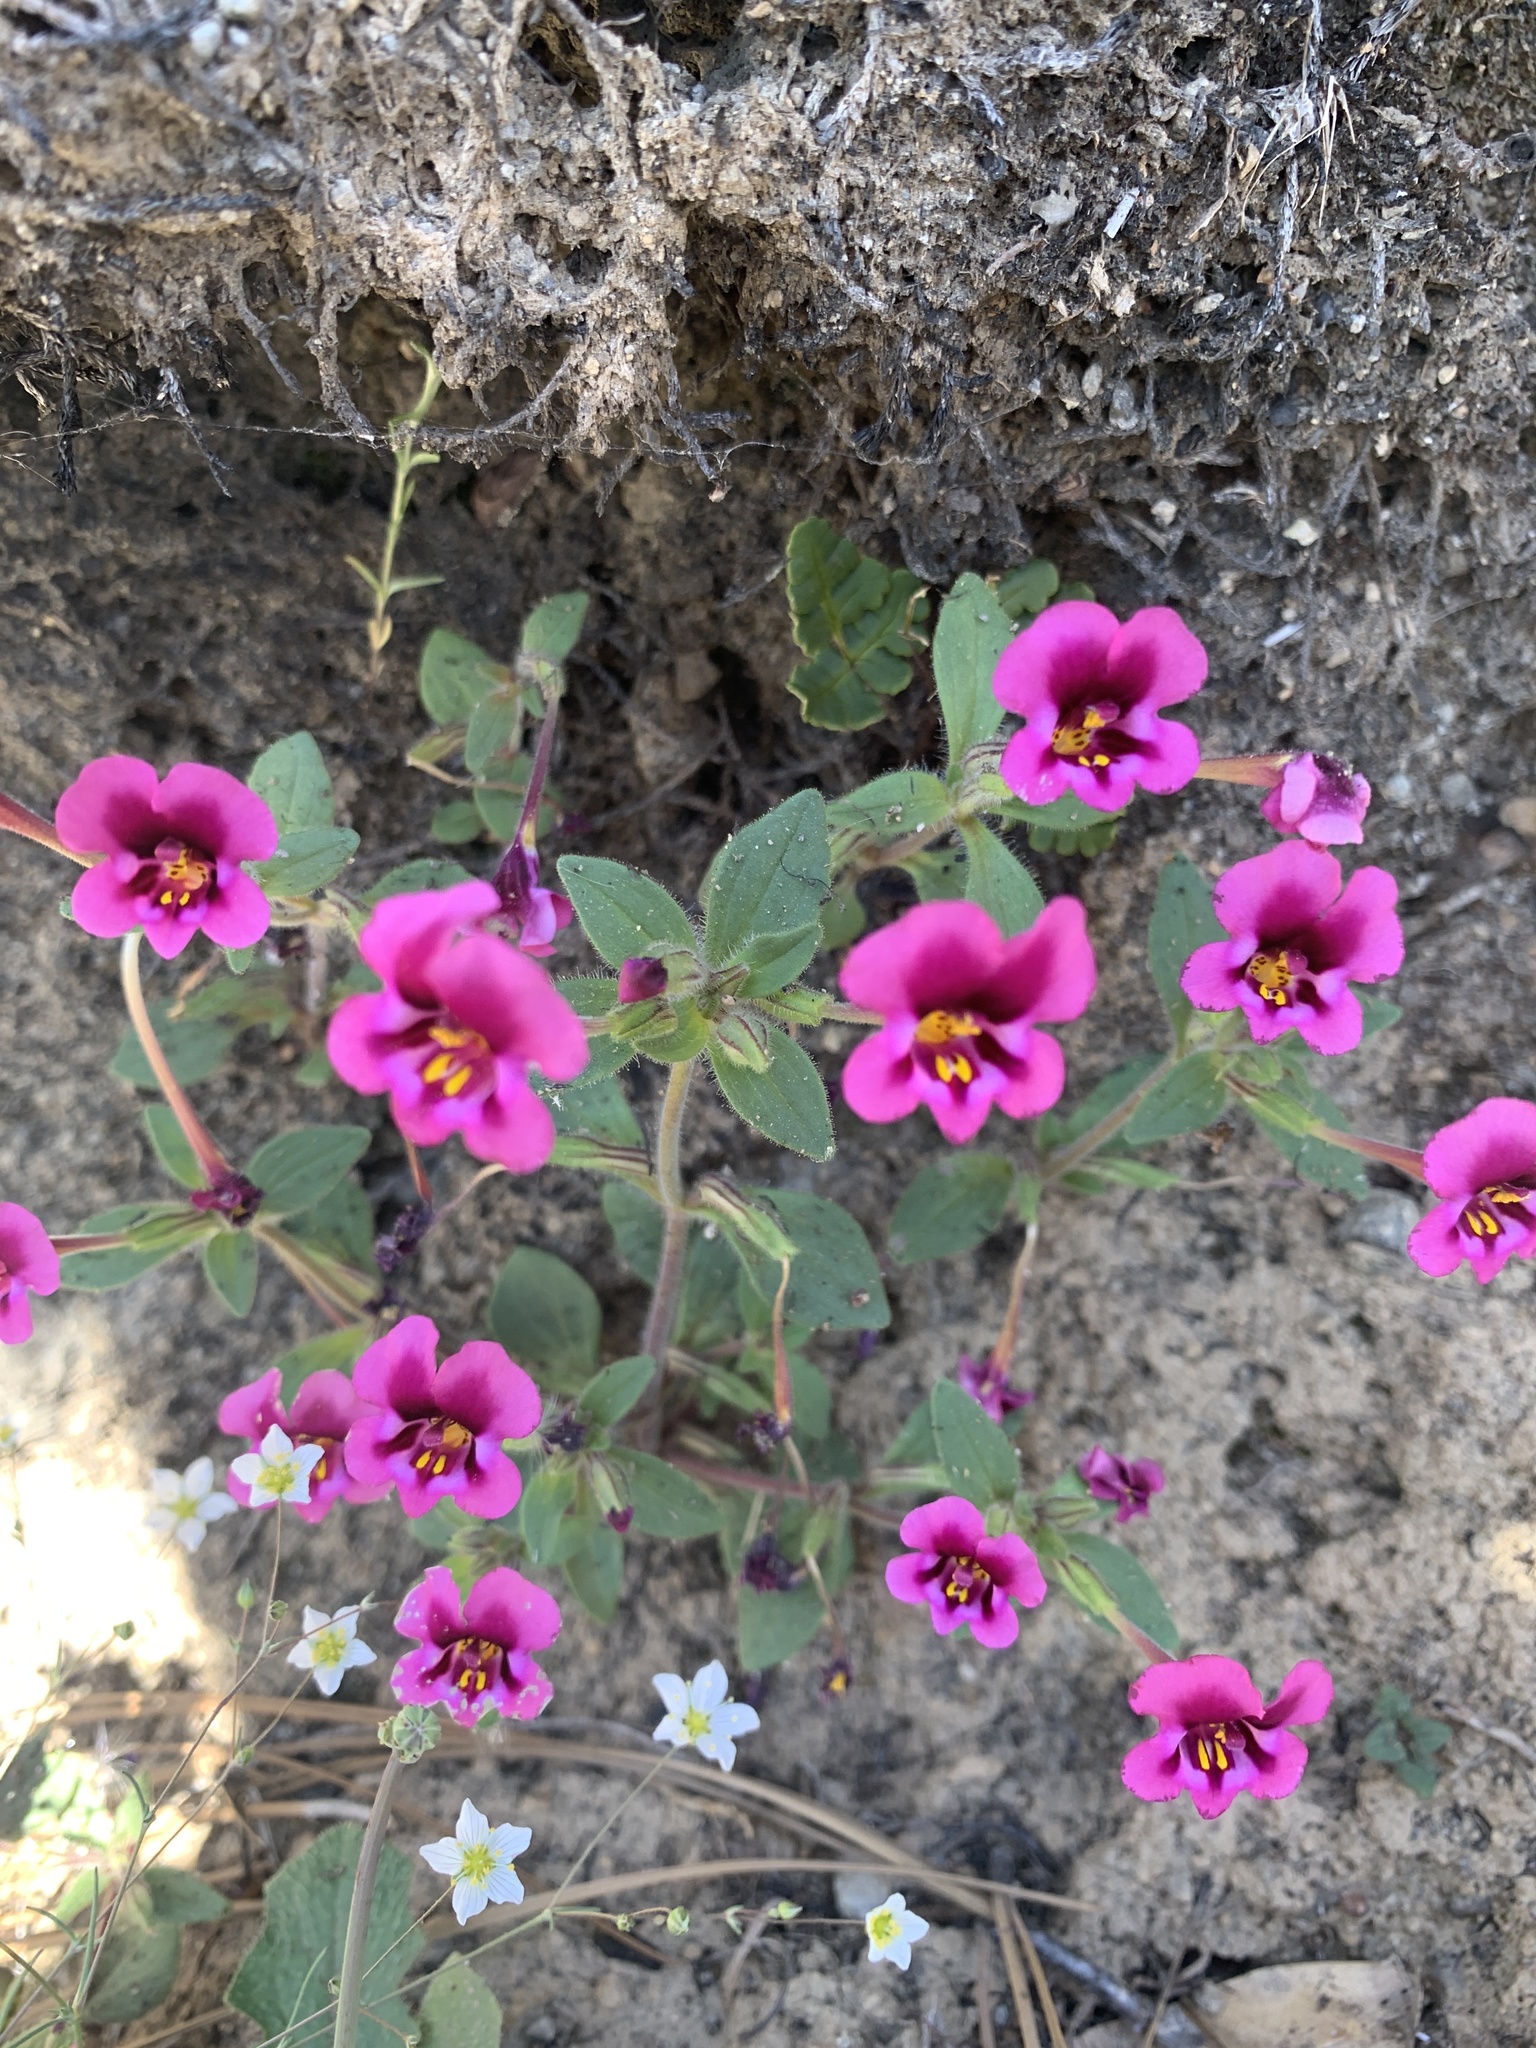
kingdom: Plantae
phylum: Tracheophyta
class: Magnoliopsida
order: Lamiales
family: Phrymaceae
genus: Diplacus
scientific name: Diplacus kelloggii
